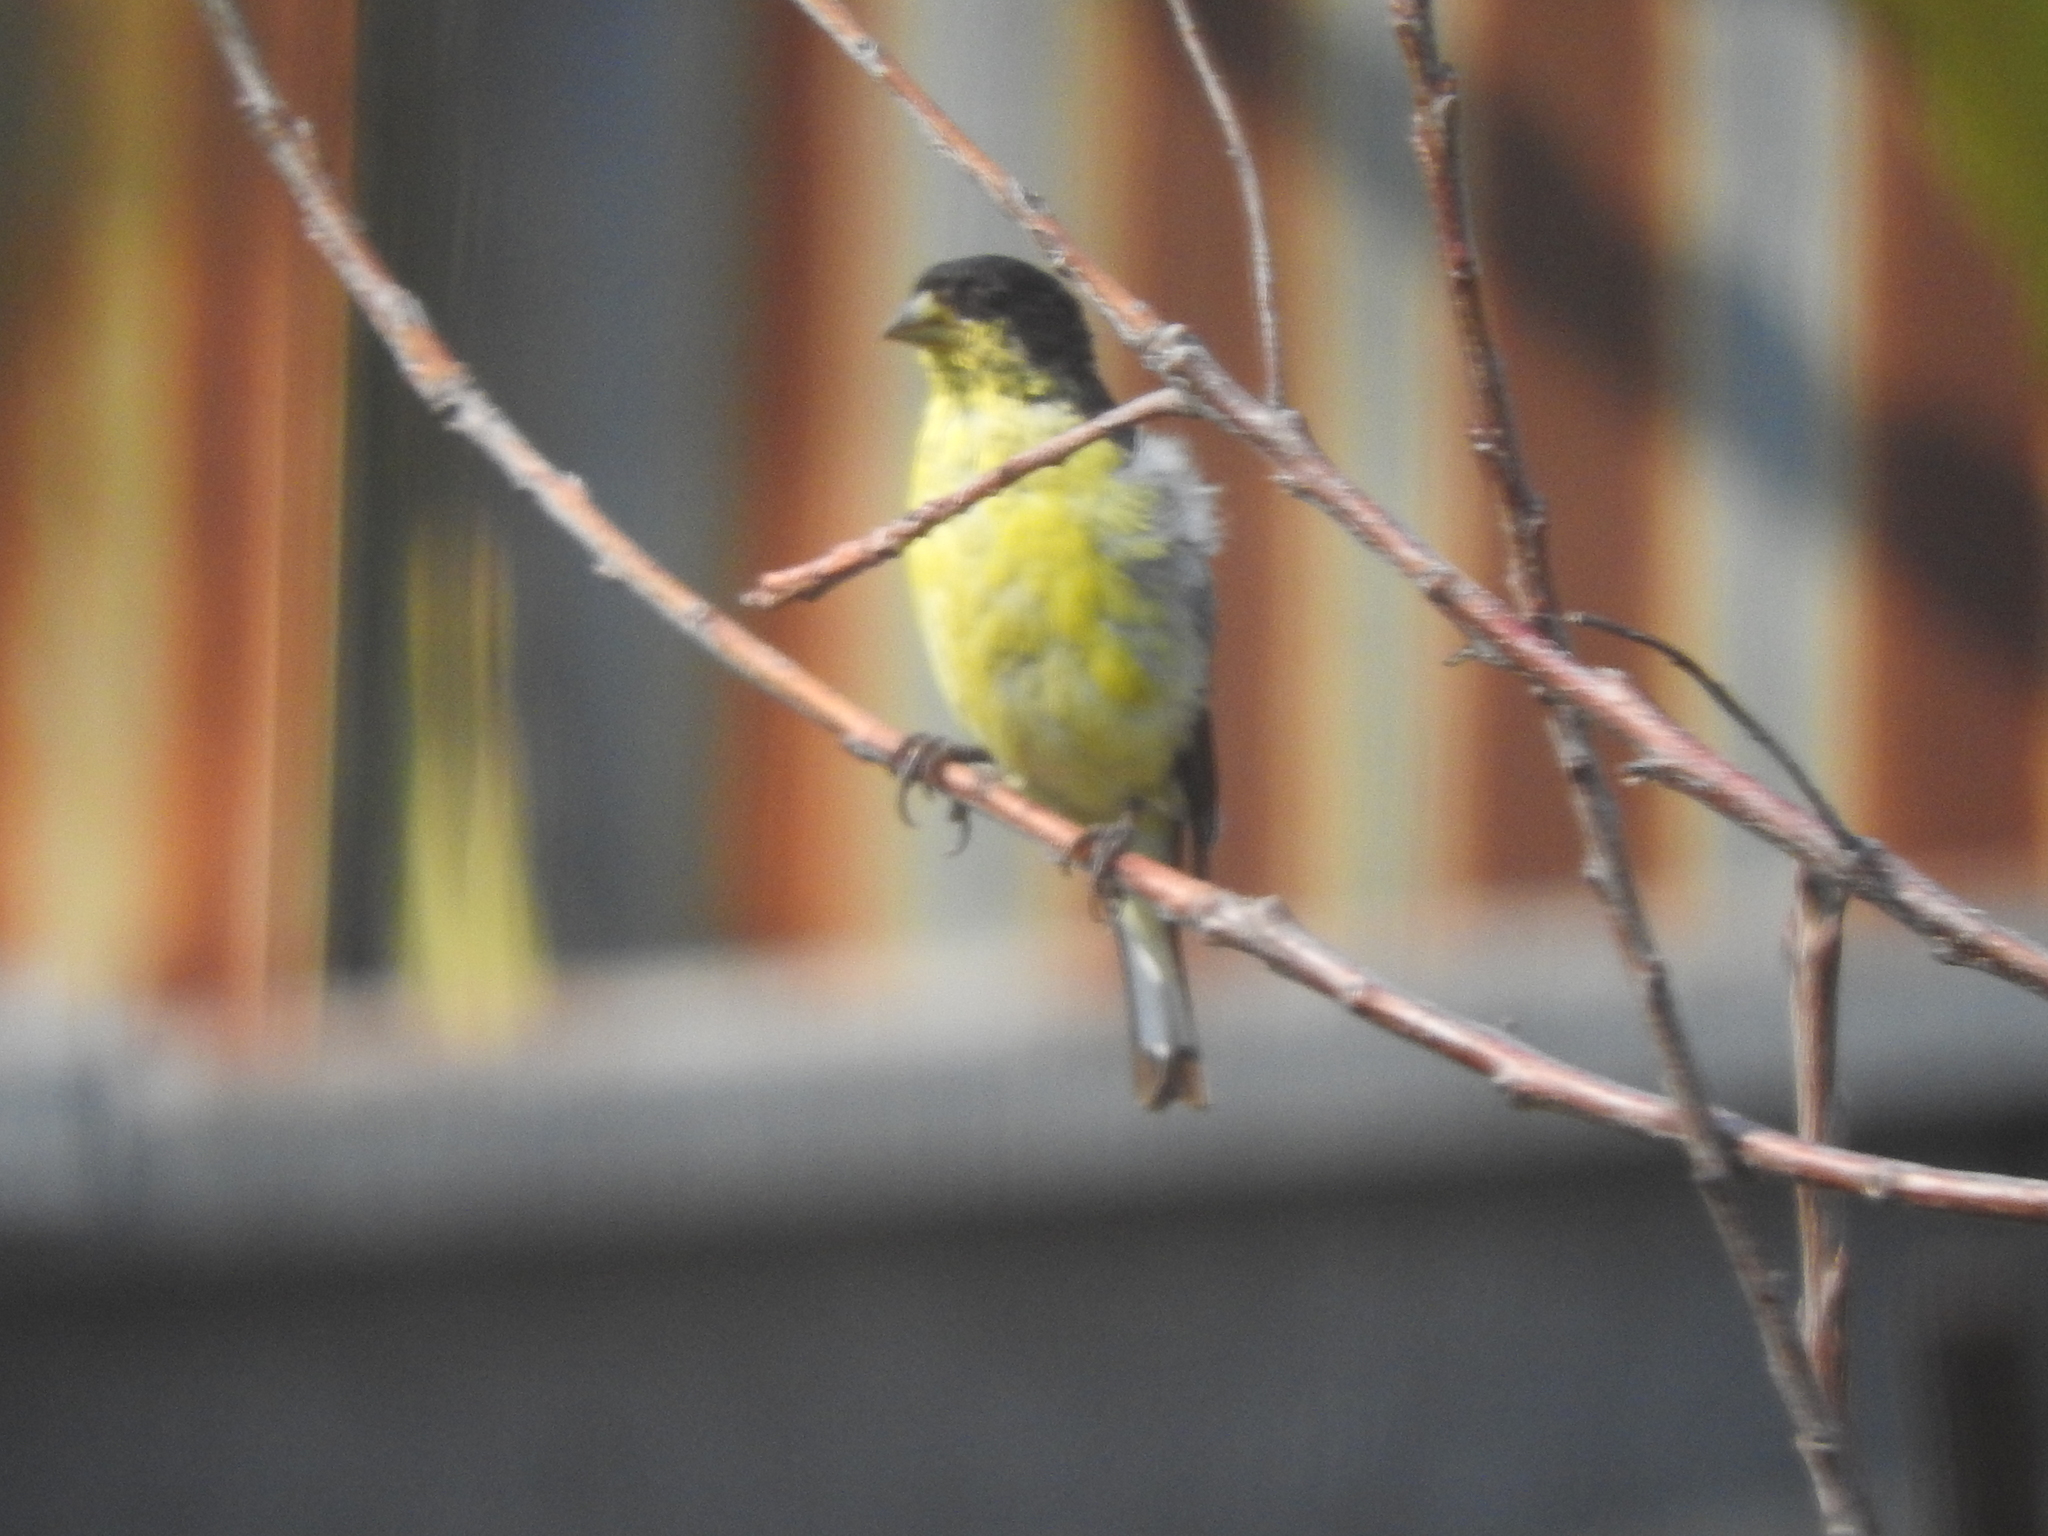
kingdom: Animalia
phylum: Chordata
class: Aves
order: Passeriformes
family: Fringillidae
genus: Spinus
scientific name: Spinus psaltria
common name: Lesser goldfinch
